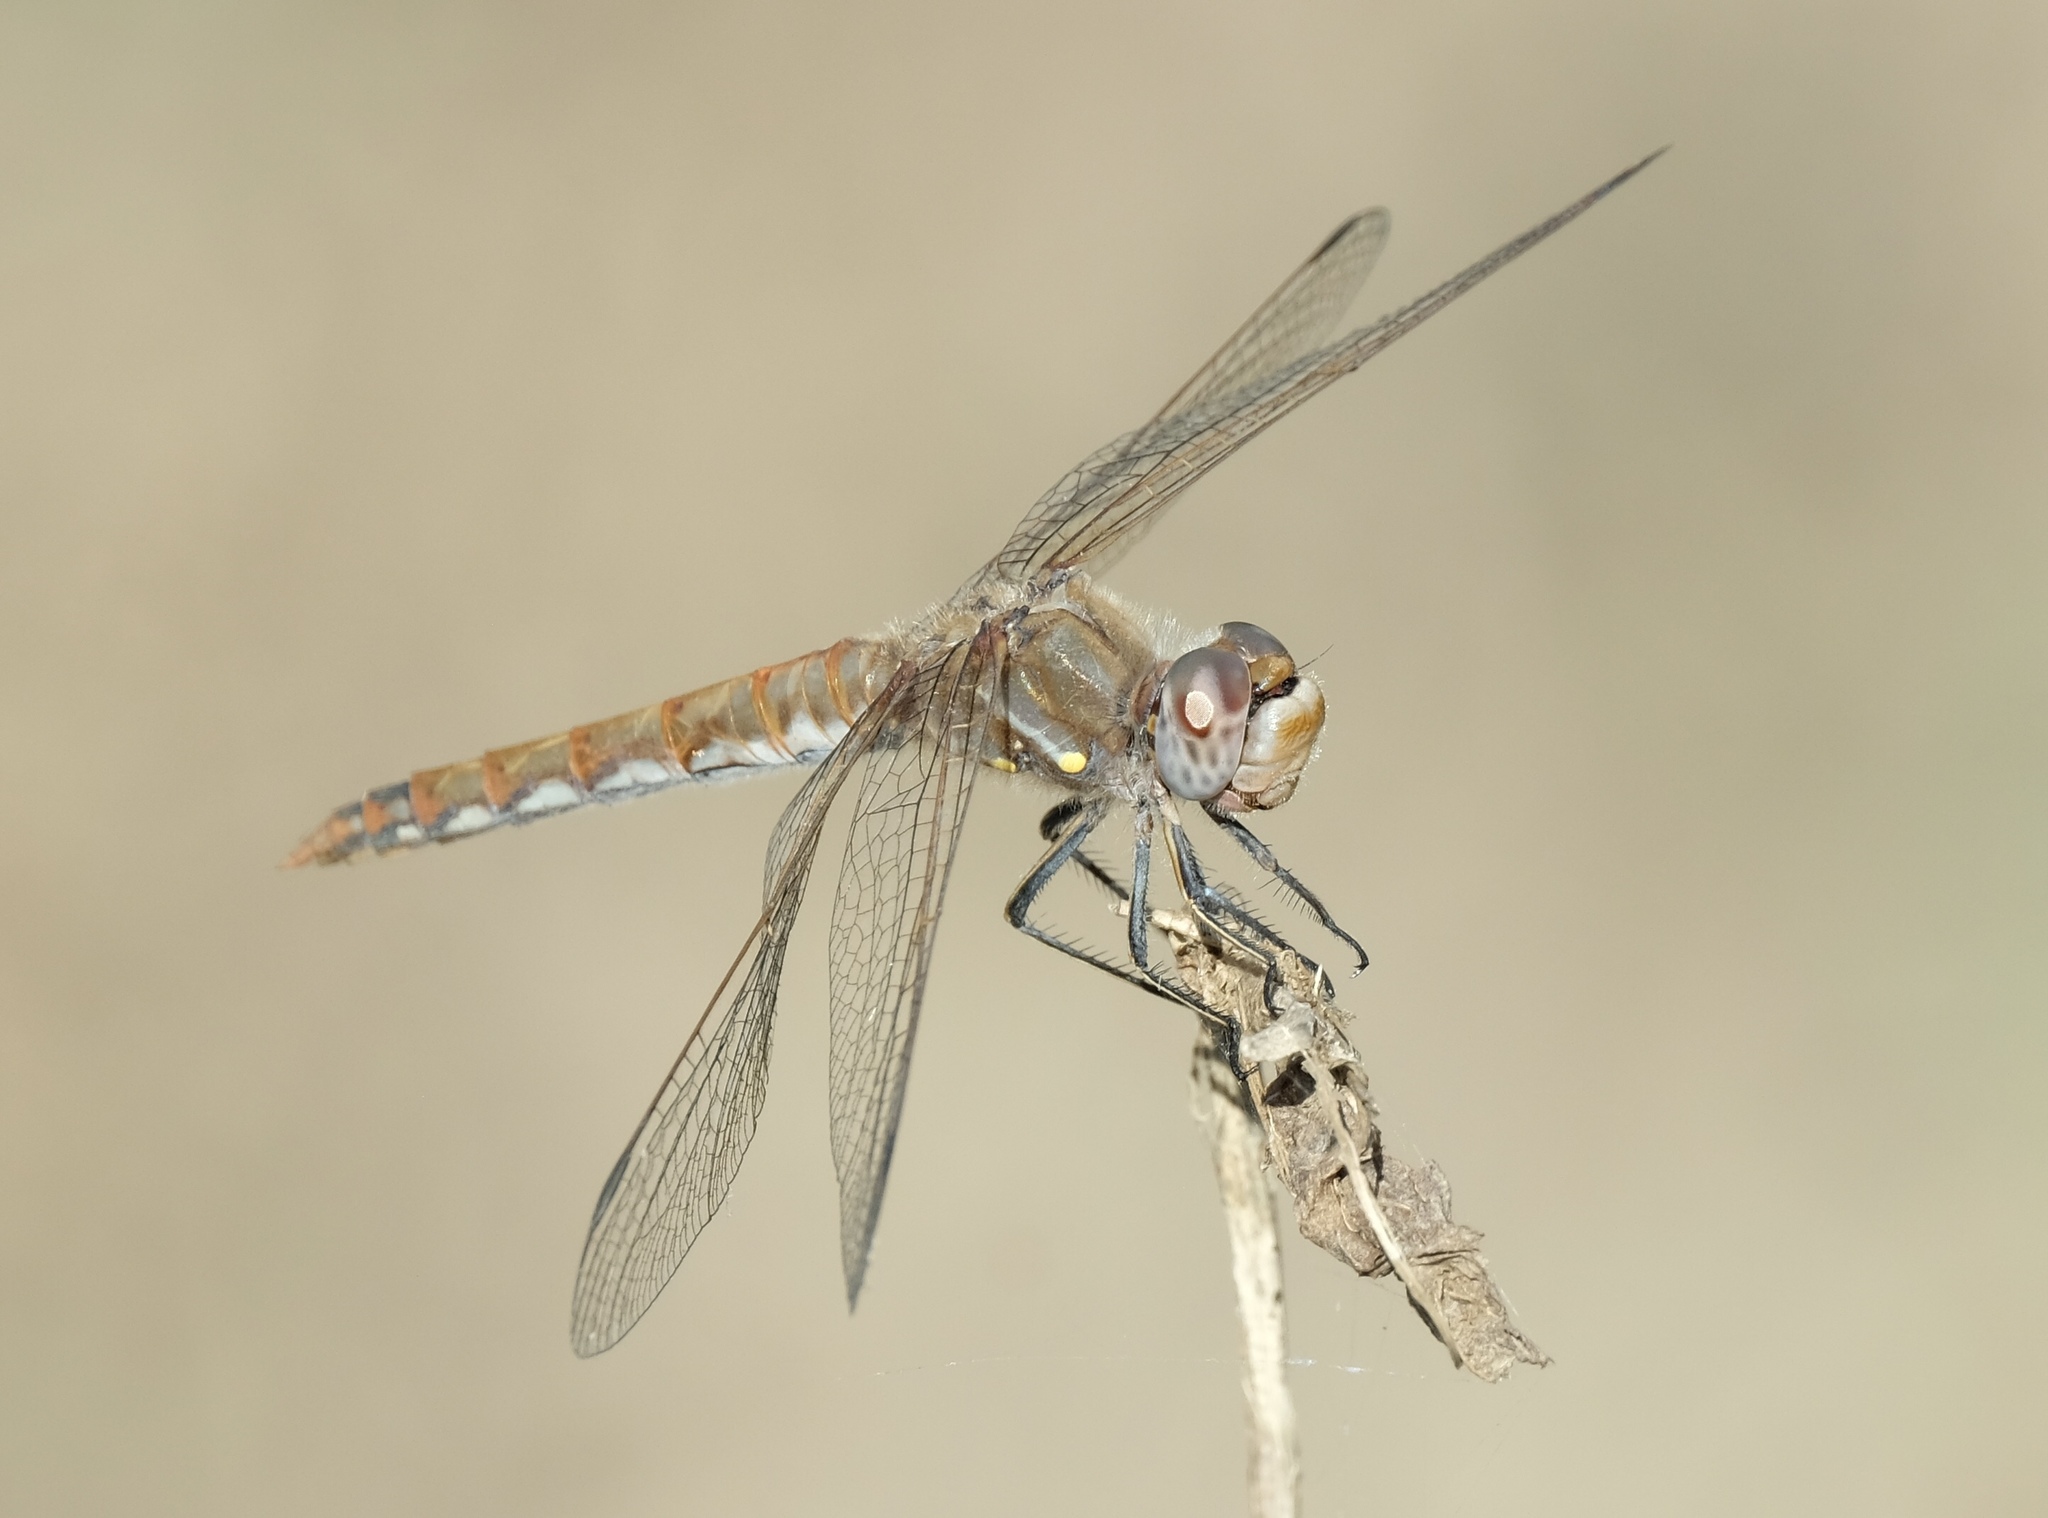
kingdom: Animalia
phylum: Arthropoda
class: Insecta
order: Odonata
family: Libellulidae
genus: Sympetrum
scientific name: Sympetrum corruptum
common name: Variegated meadowhawk
